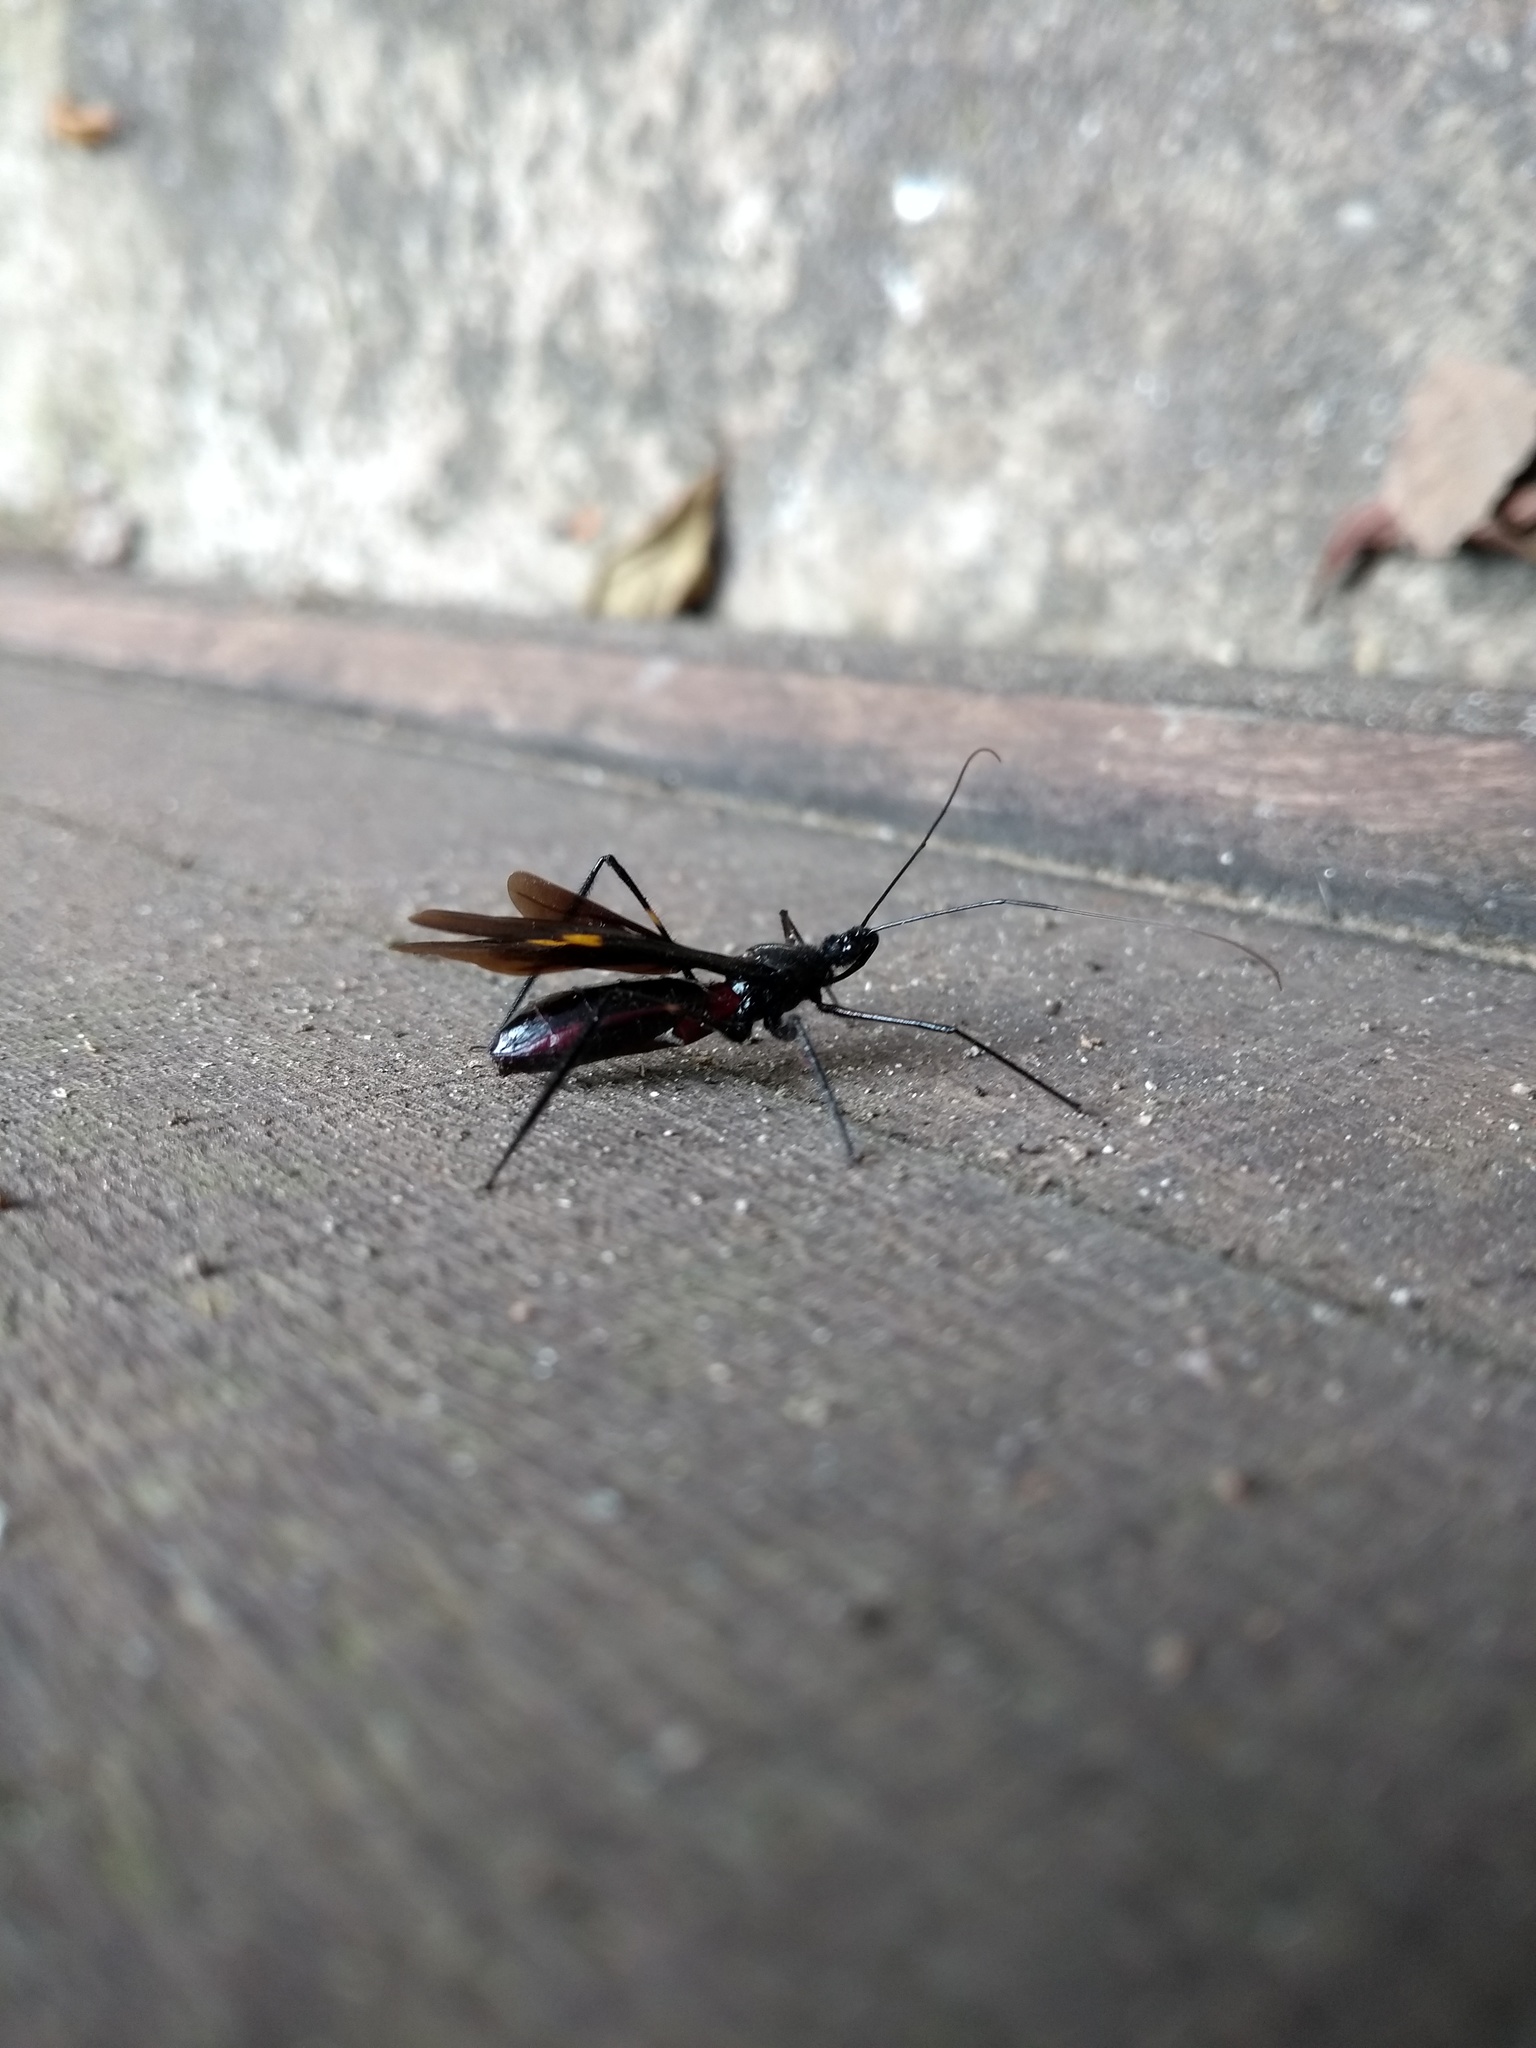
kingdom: Animalia
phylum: Arthropoda
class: Insecta
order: Hemiptera
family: Reduviidae
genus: Parahiranetis
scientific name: Parahiranetis salgadoi
